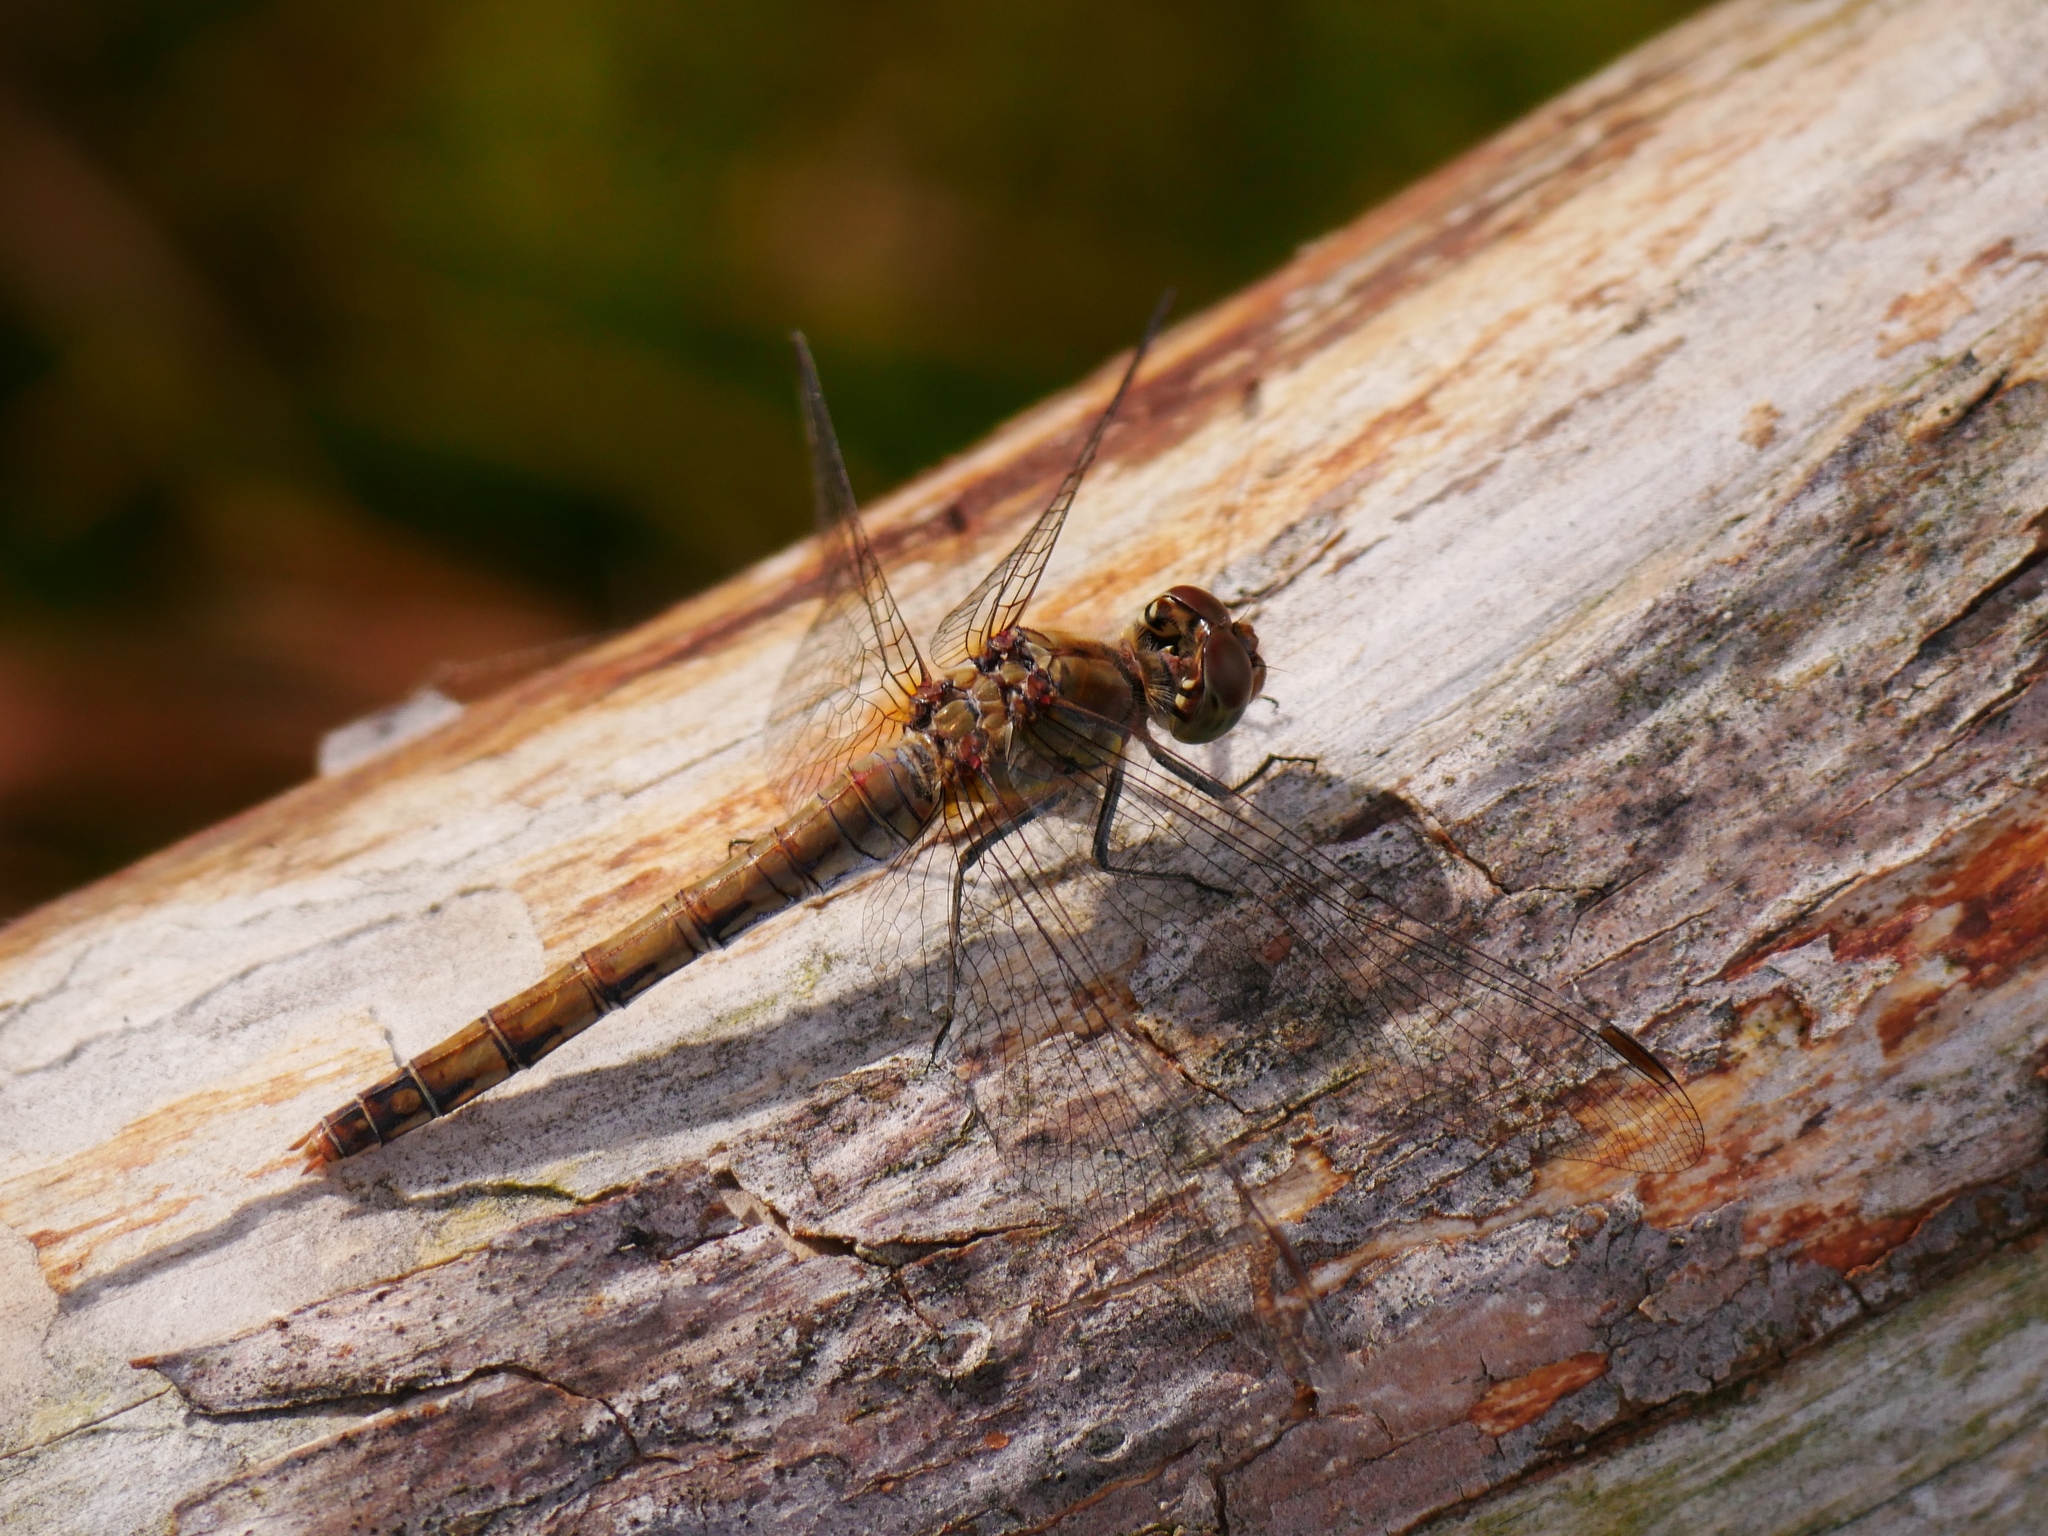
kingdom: Animalia
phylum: Arthropoda
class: Insecta
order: Odonata
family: Libellulidae
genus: Sympetrum
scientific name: Sympetrum striolatum
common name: Common darter
